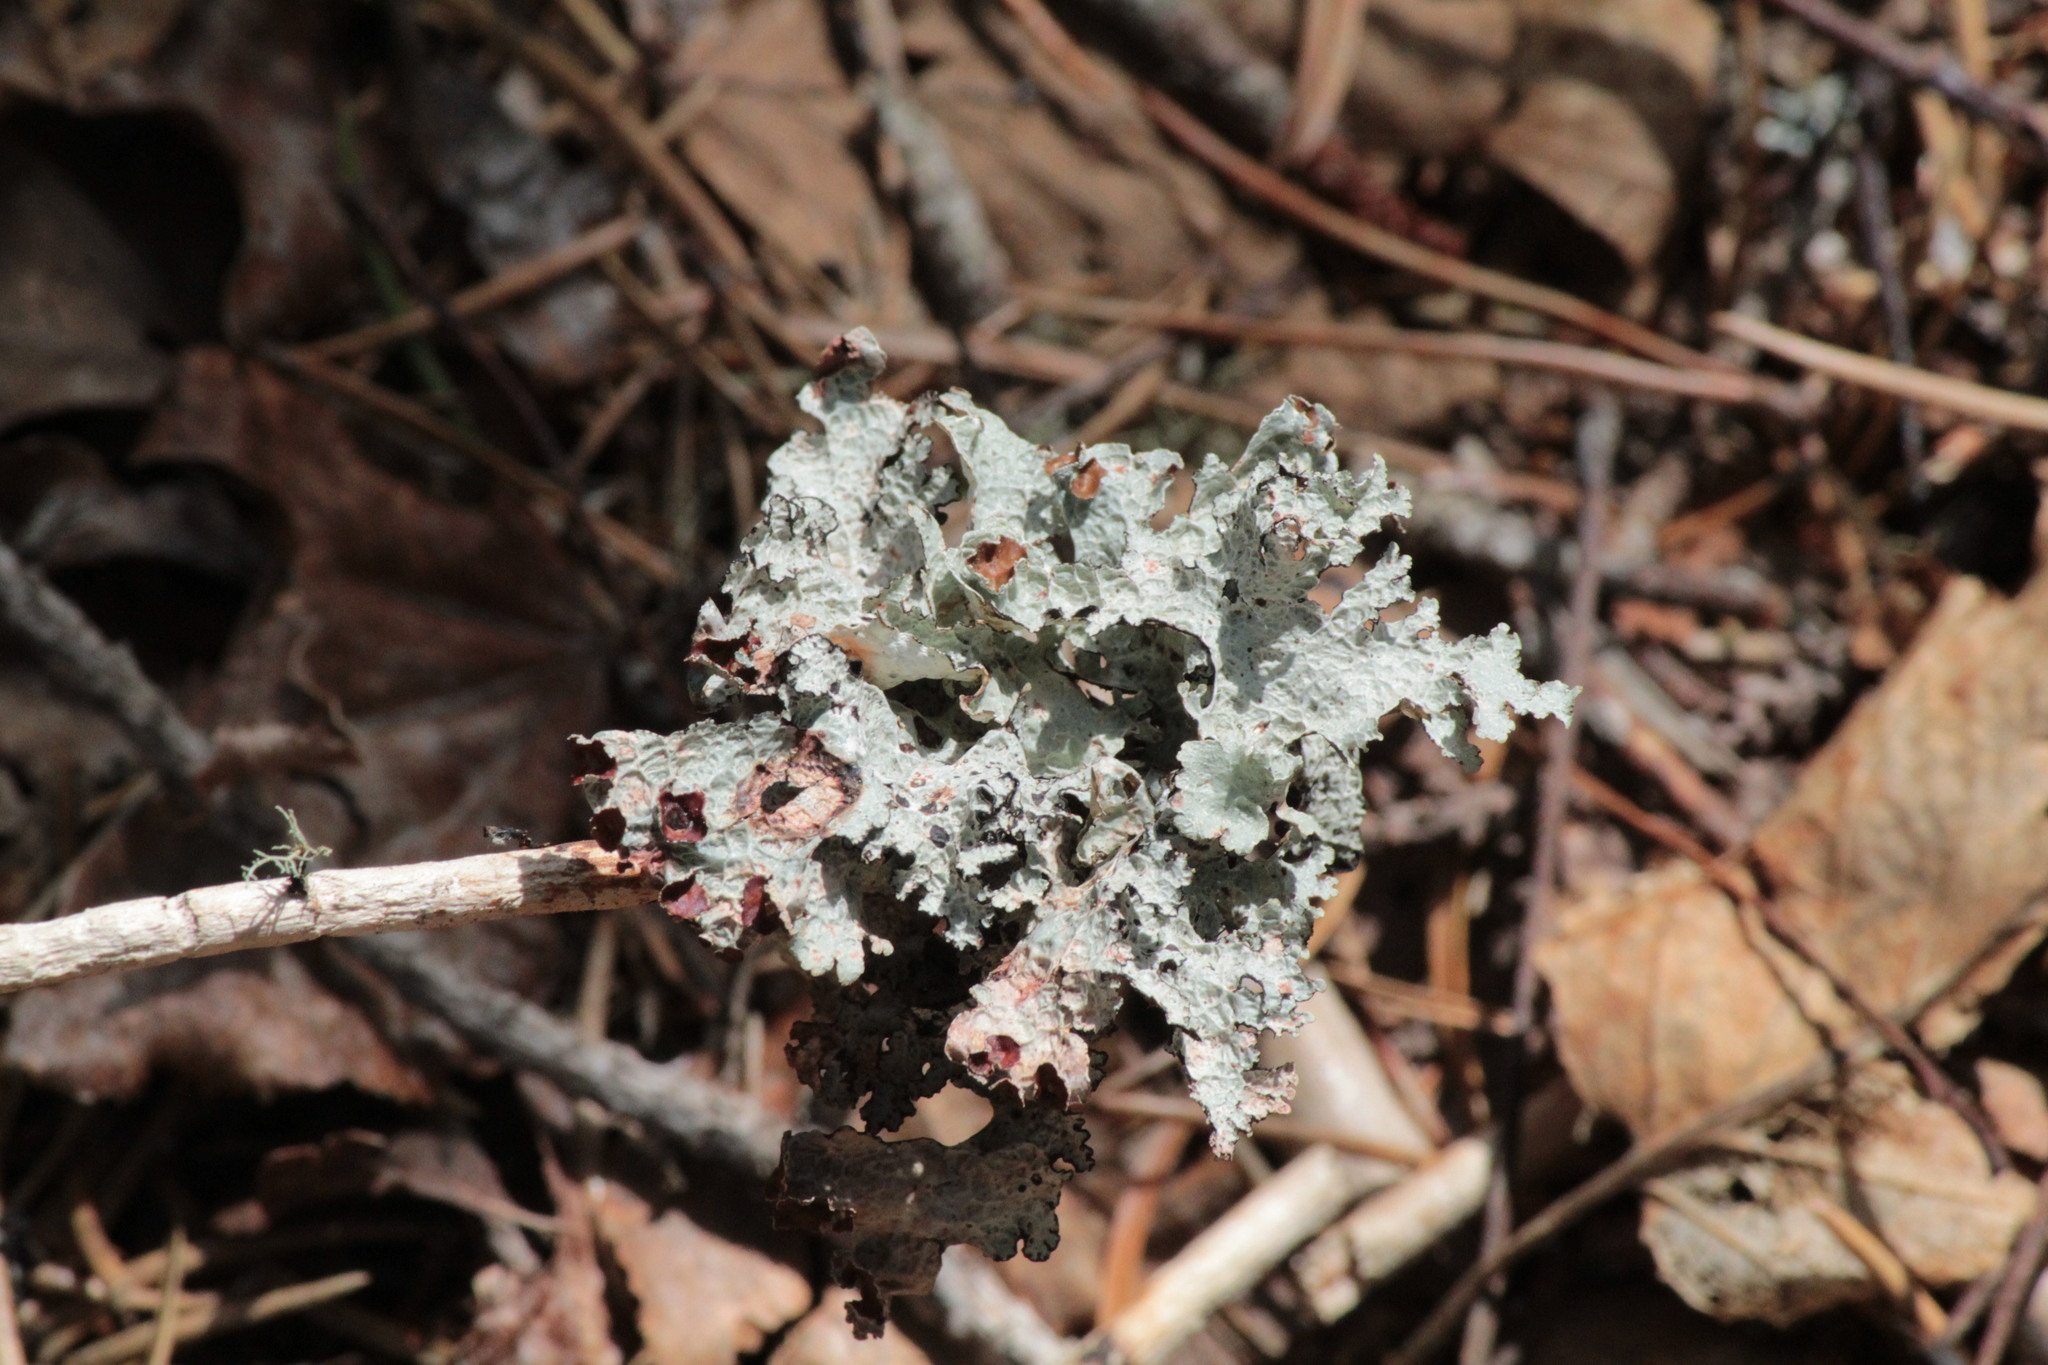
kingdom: Fungi
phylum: Ascomycota
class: Lecanoromycetes
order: Lecanorales
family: Parmeliaceae
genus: Platismatia
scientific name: Platismatia tuckermanii
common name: Crumpled rag lichen
